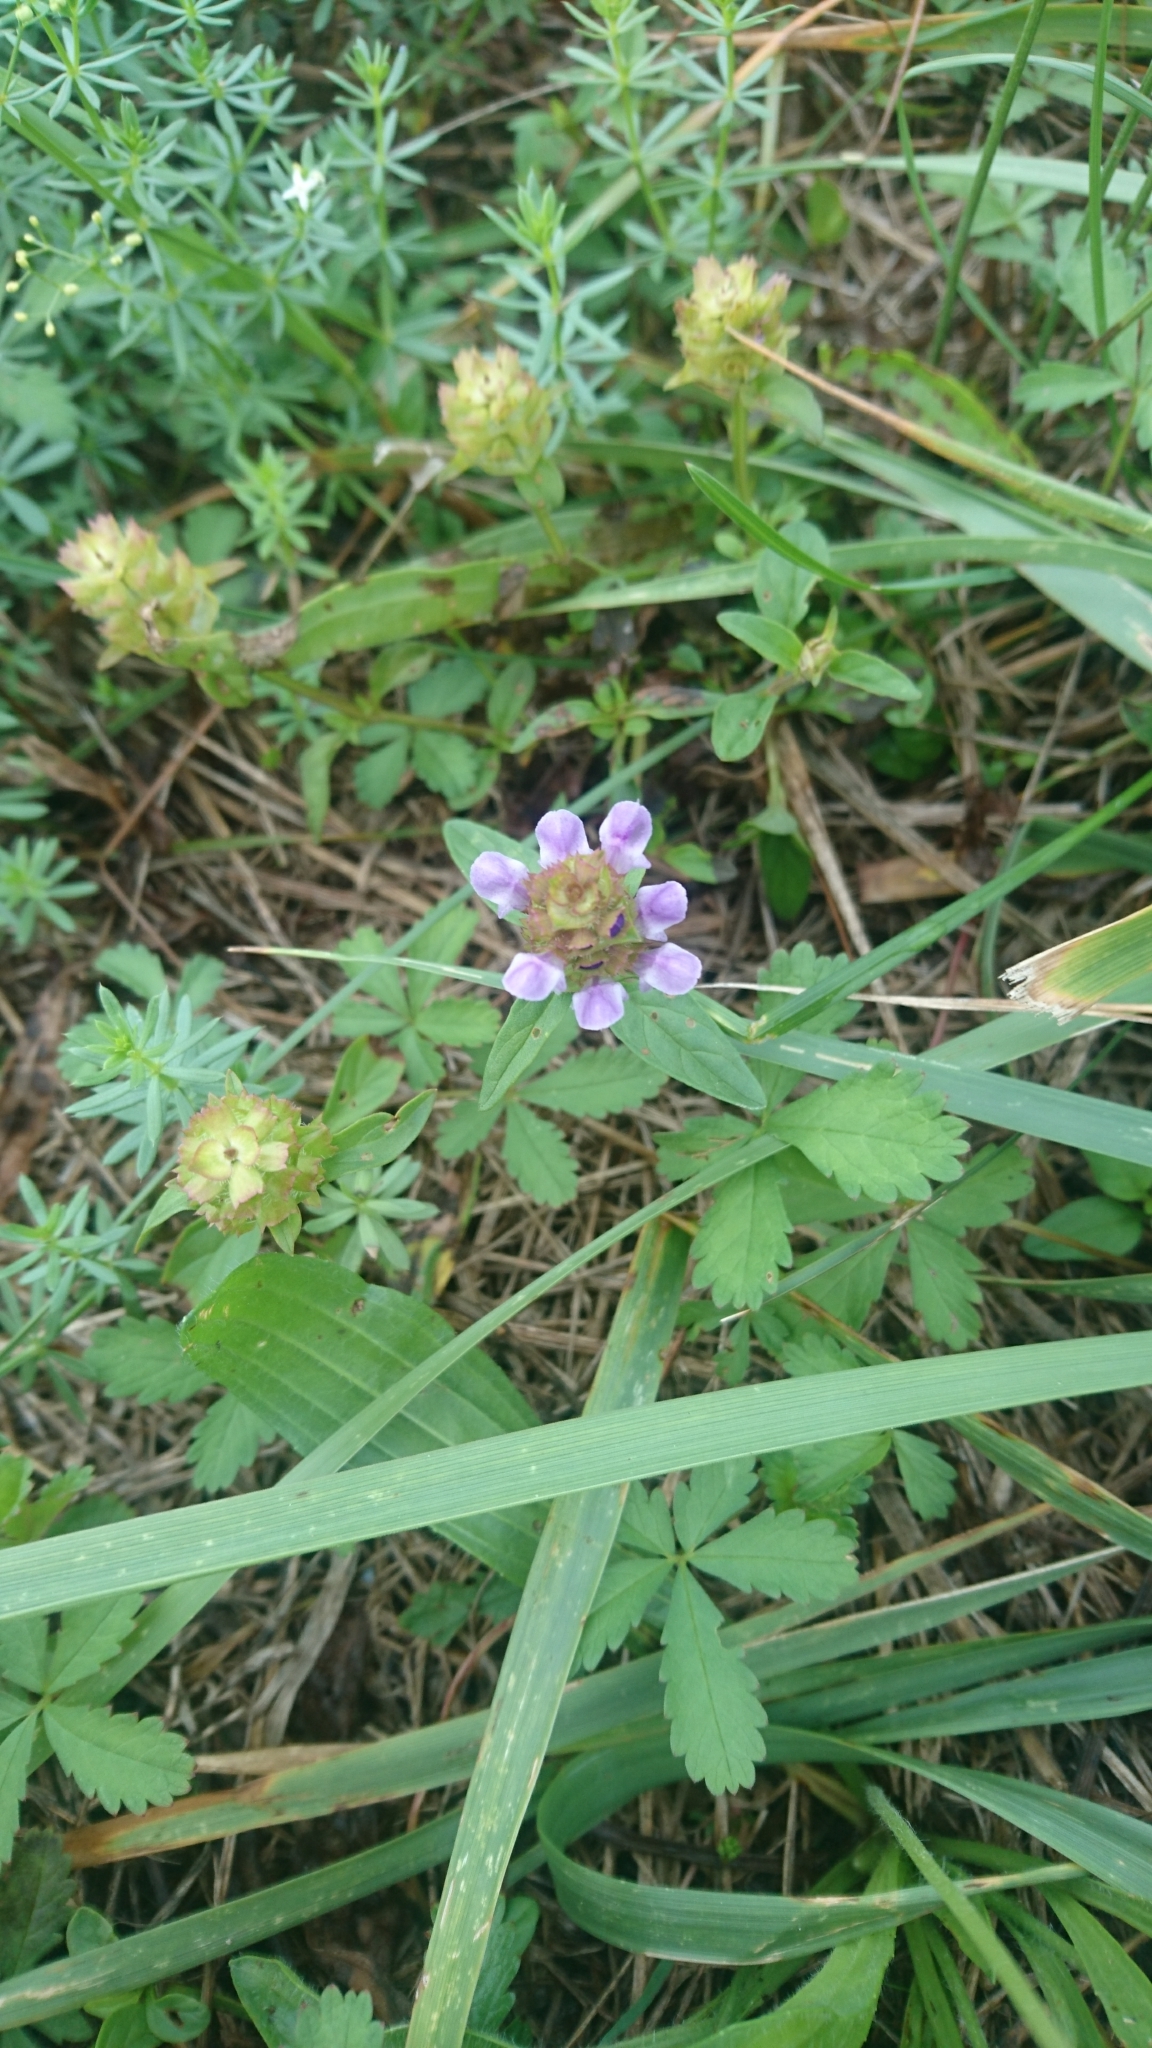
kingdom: Plantae
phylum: Tracheophyta
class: Magnoliopsida
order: Lamiales
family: Lamiaceae
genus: Prunella
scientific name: Prunella vulgaris
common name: Heal-all
